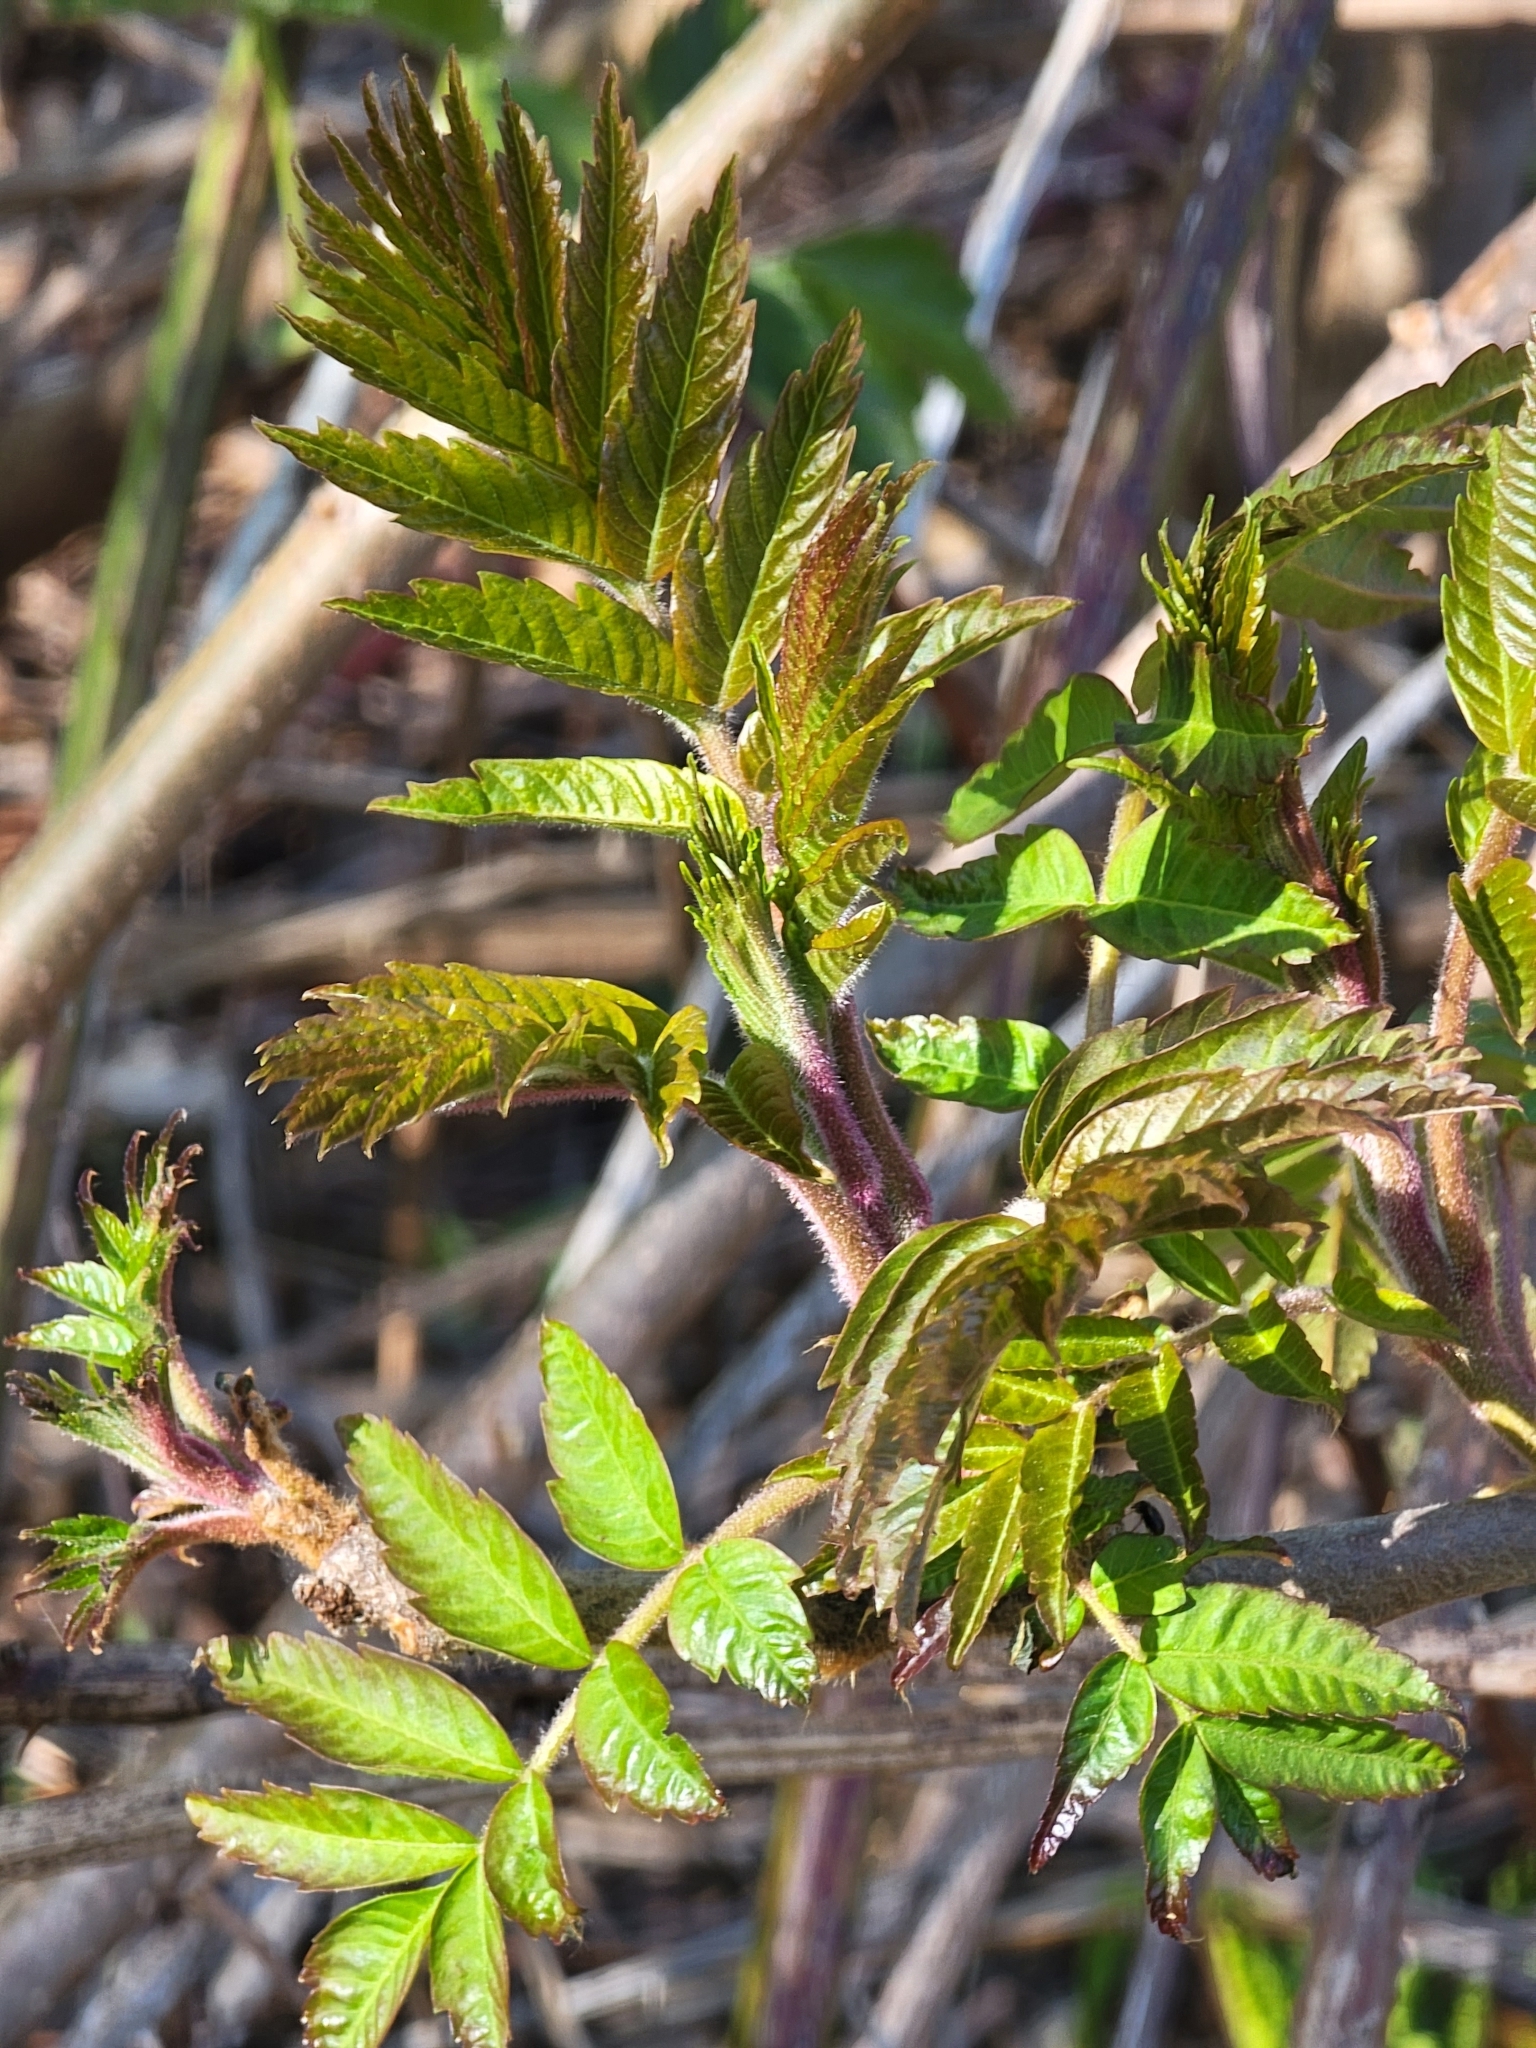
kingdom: Plantae
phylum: Tracheophyta
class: Magnoliopsida
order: Sapindales
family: Anacardiaceae
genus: Rhus
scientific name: Rhus typhina
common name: Staghorn sumac
